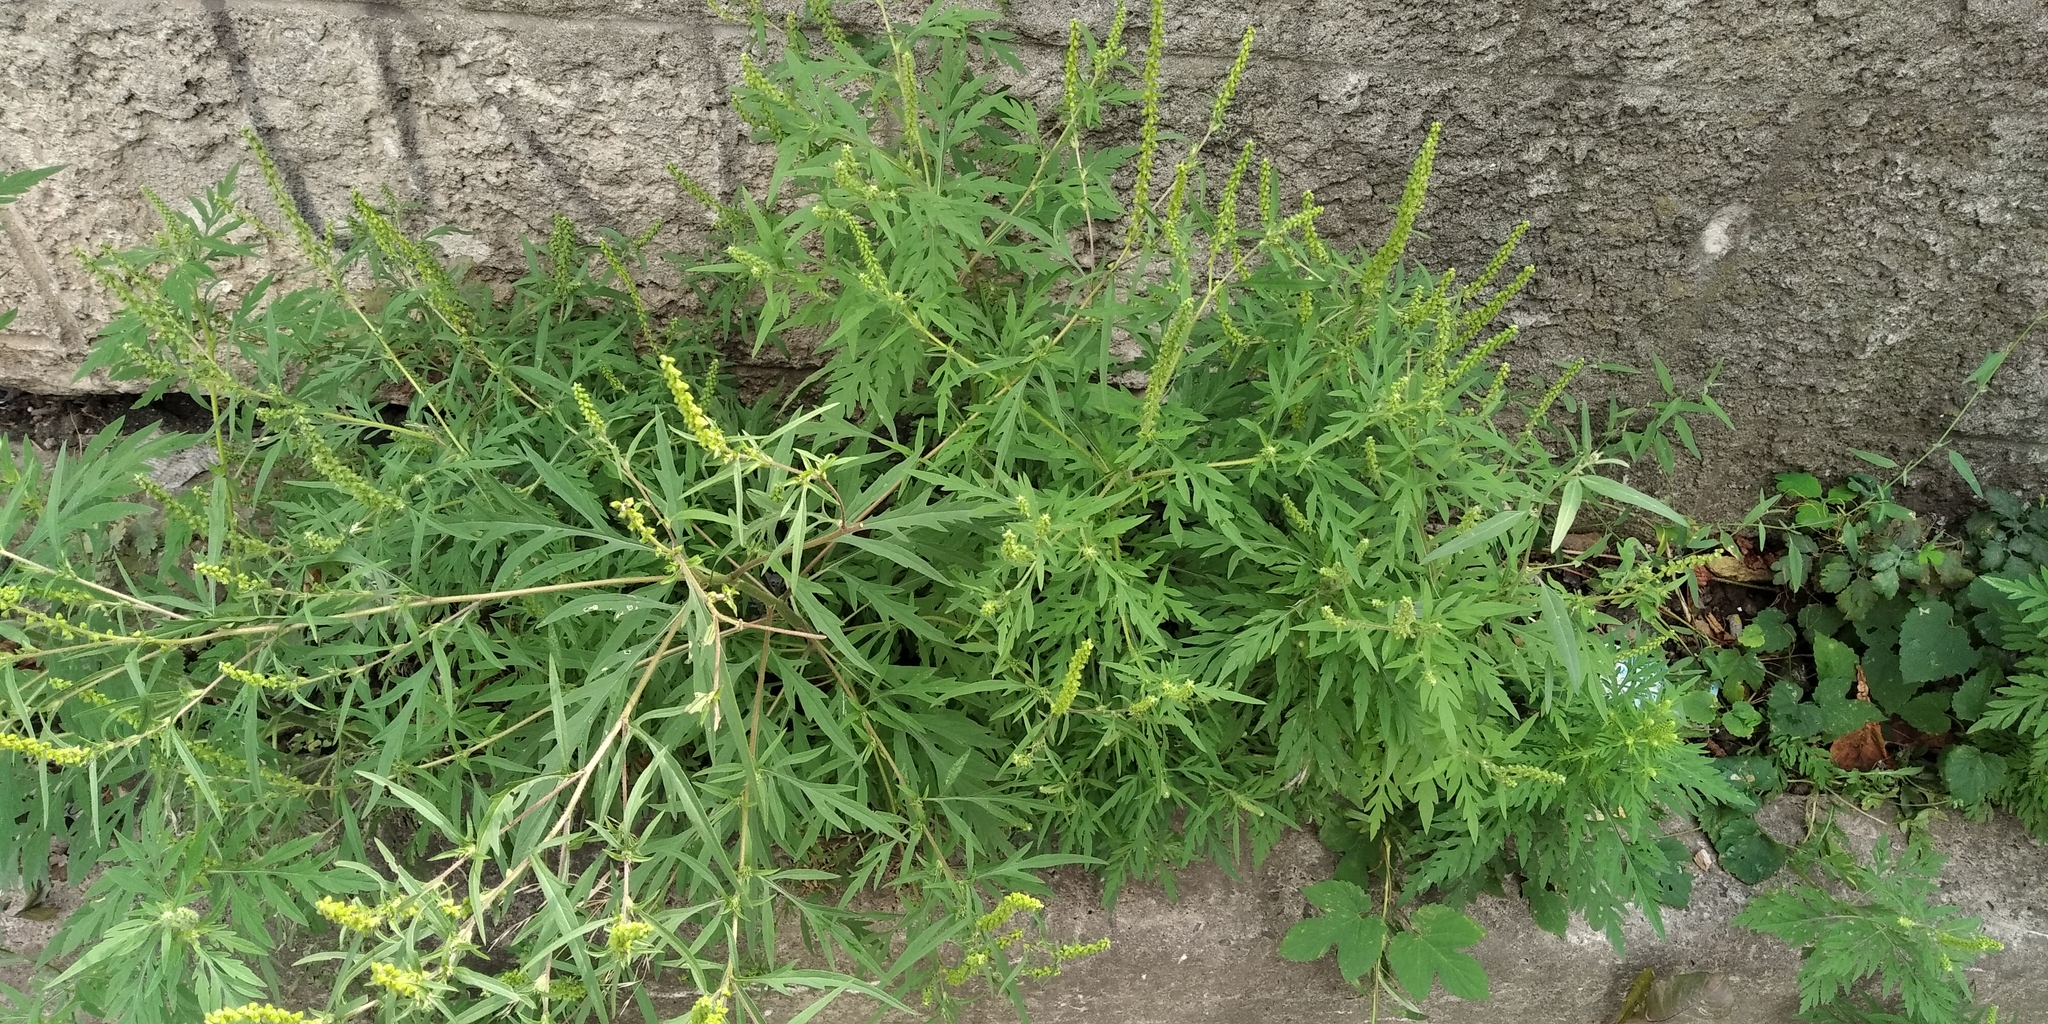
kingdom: Plantae
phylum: Tracheophyta
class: Magnoliopsida
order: Asterales
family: Asteraceae
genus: Ambrosia
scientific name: Ambrosia artemisiifolia
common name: Annual ragweed
